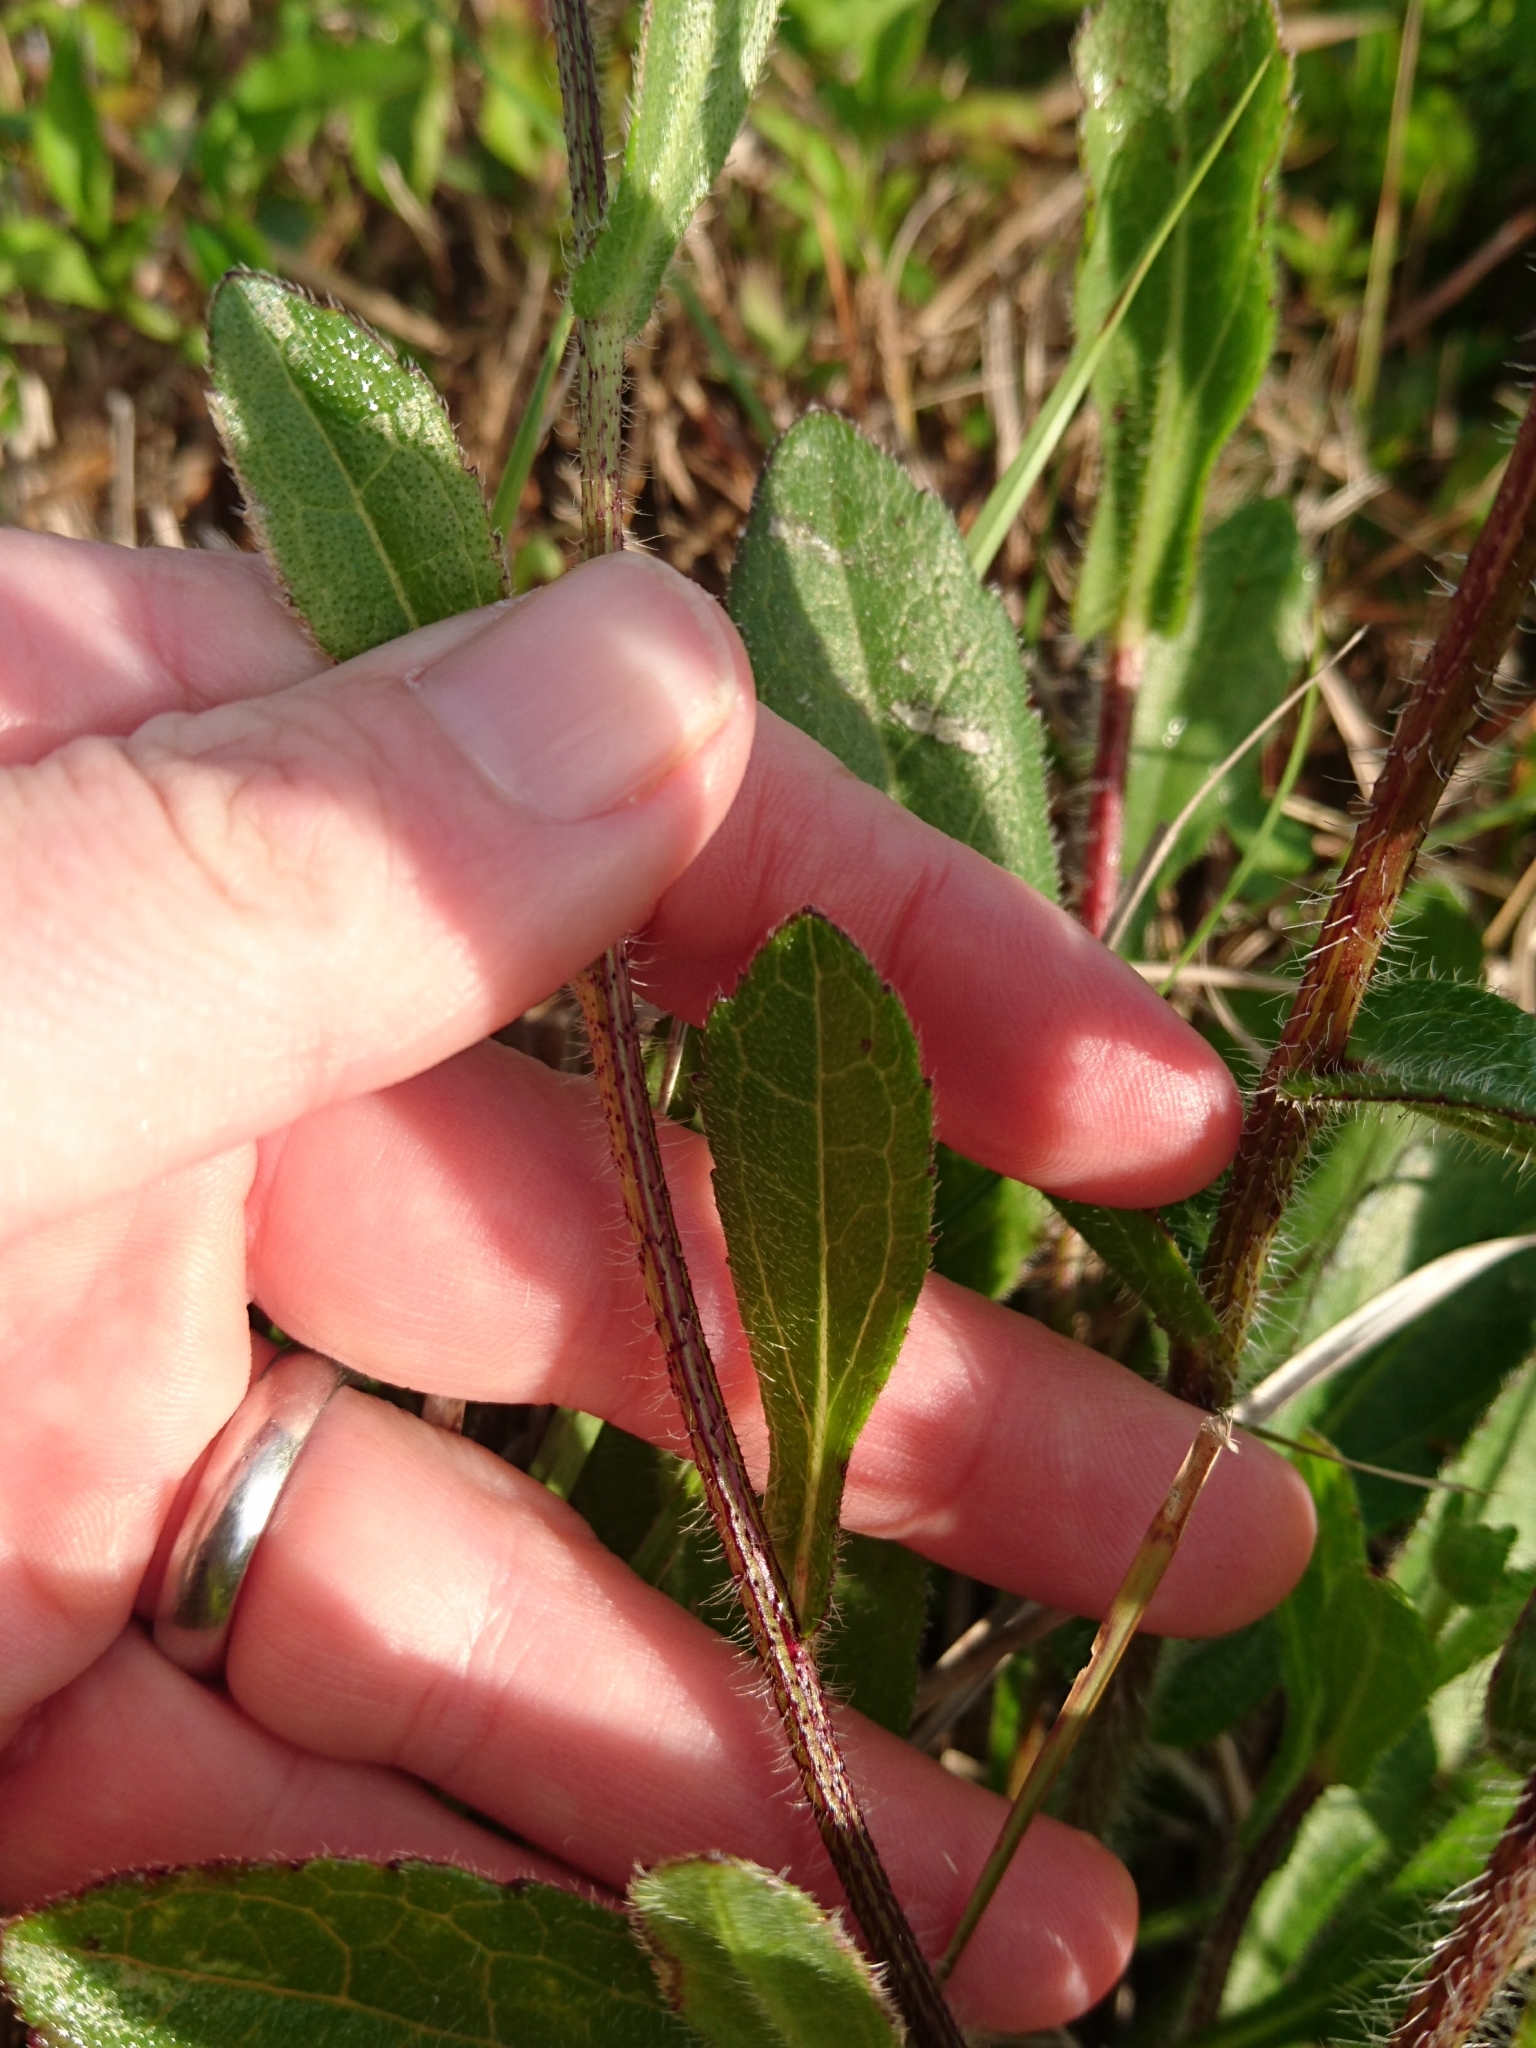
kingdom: Plantae
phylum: Tracheophyta
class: Magnoliopsida
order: Asterales
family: Asteraceae
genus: Rudbeckia
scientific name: Rudbeckia hirta
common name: Black-eyed-susan
